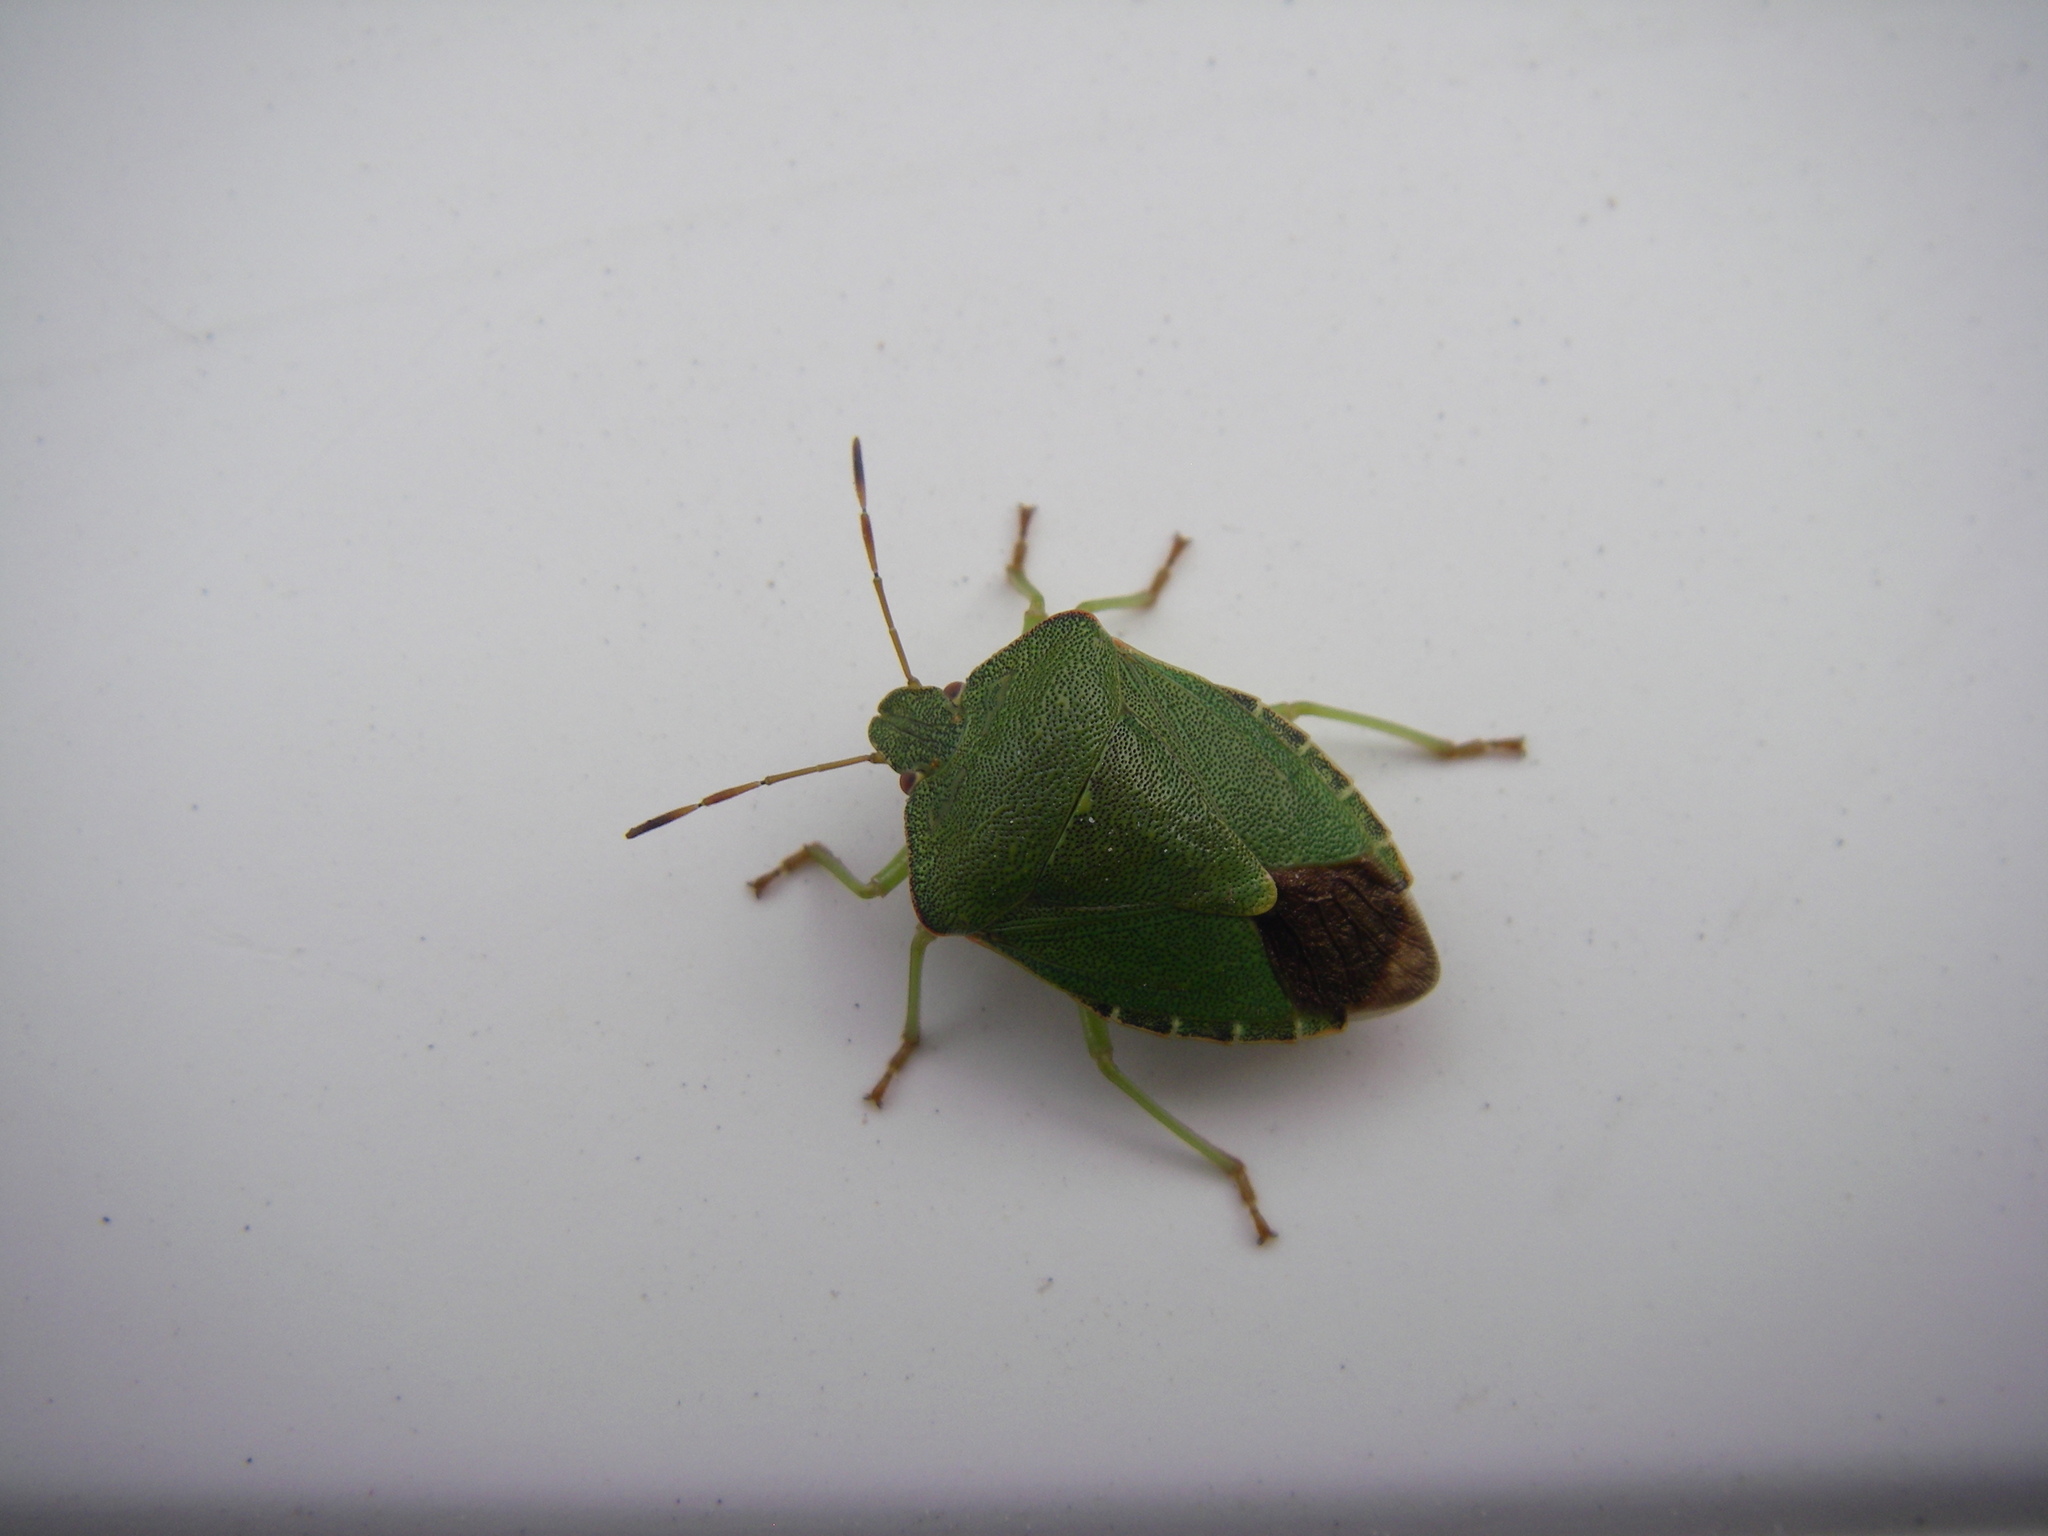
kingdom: Animalia
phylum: Arthropoda
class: Insecta
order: Hemiptera
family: Pentatomidae
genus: Palomena
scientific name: Palomena prasina
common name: Green shieldbug
